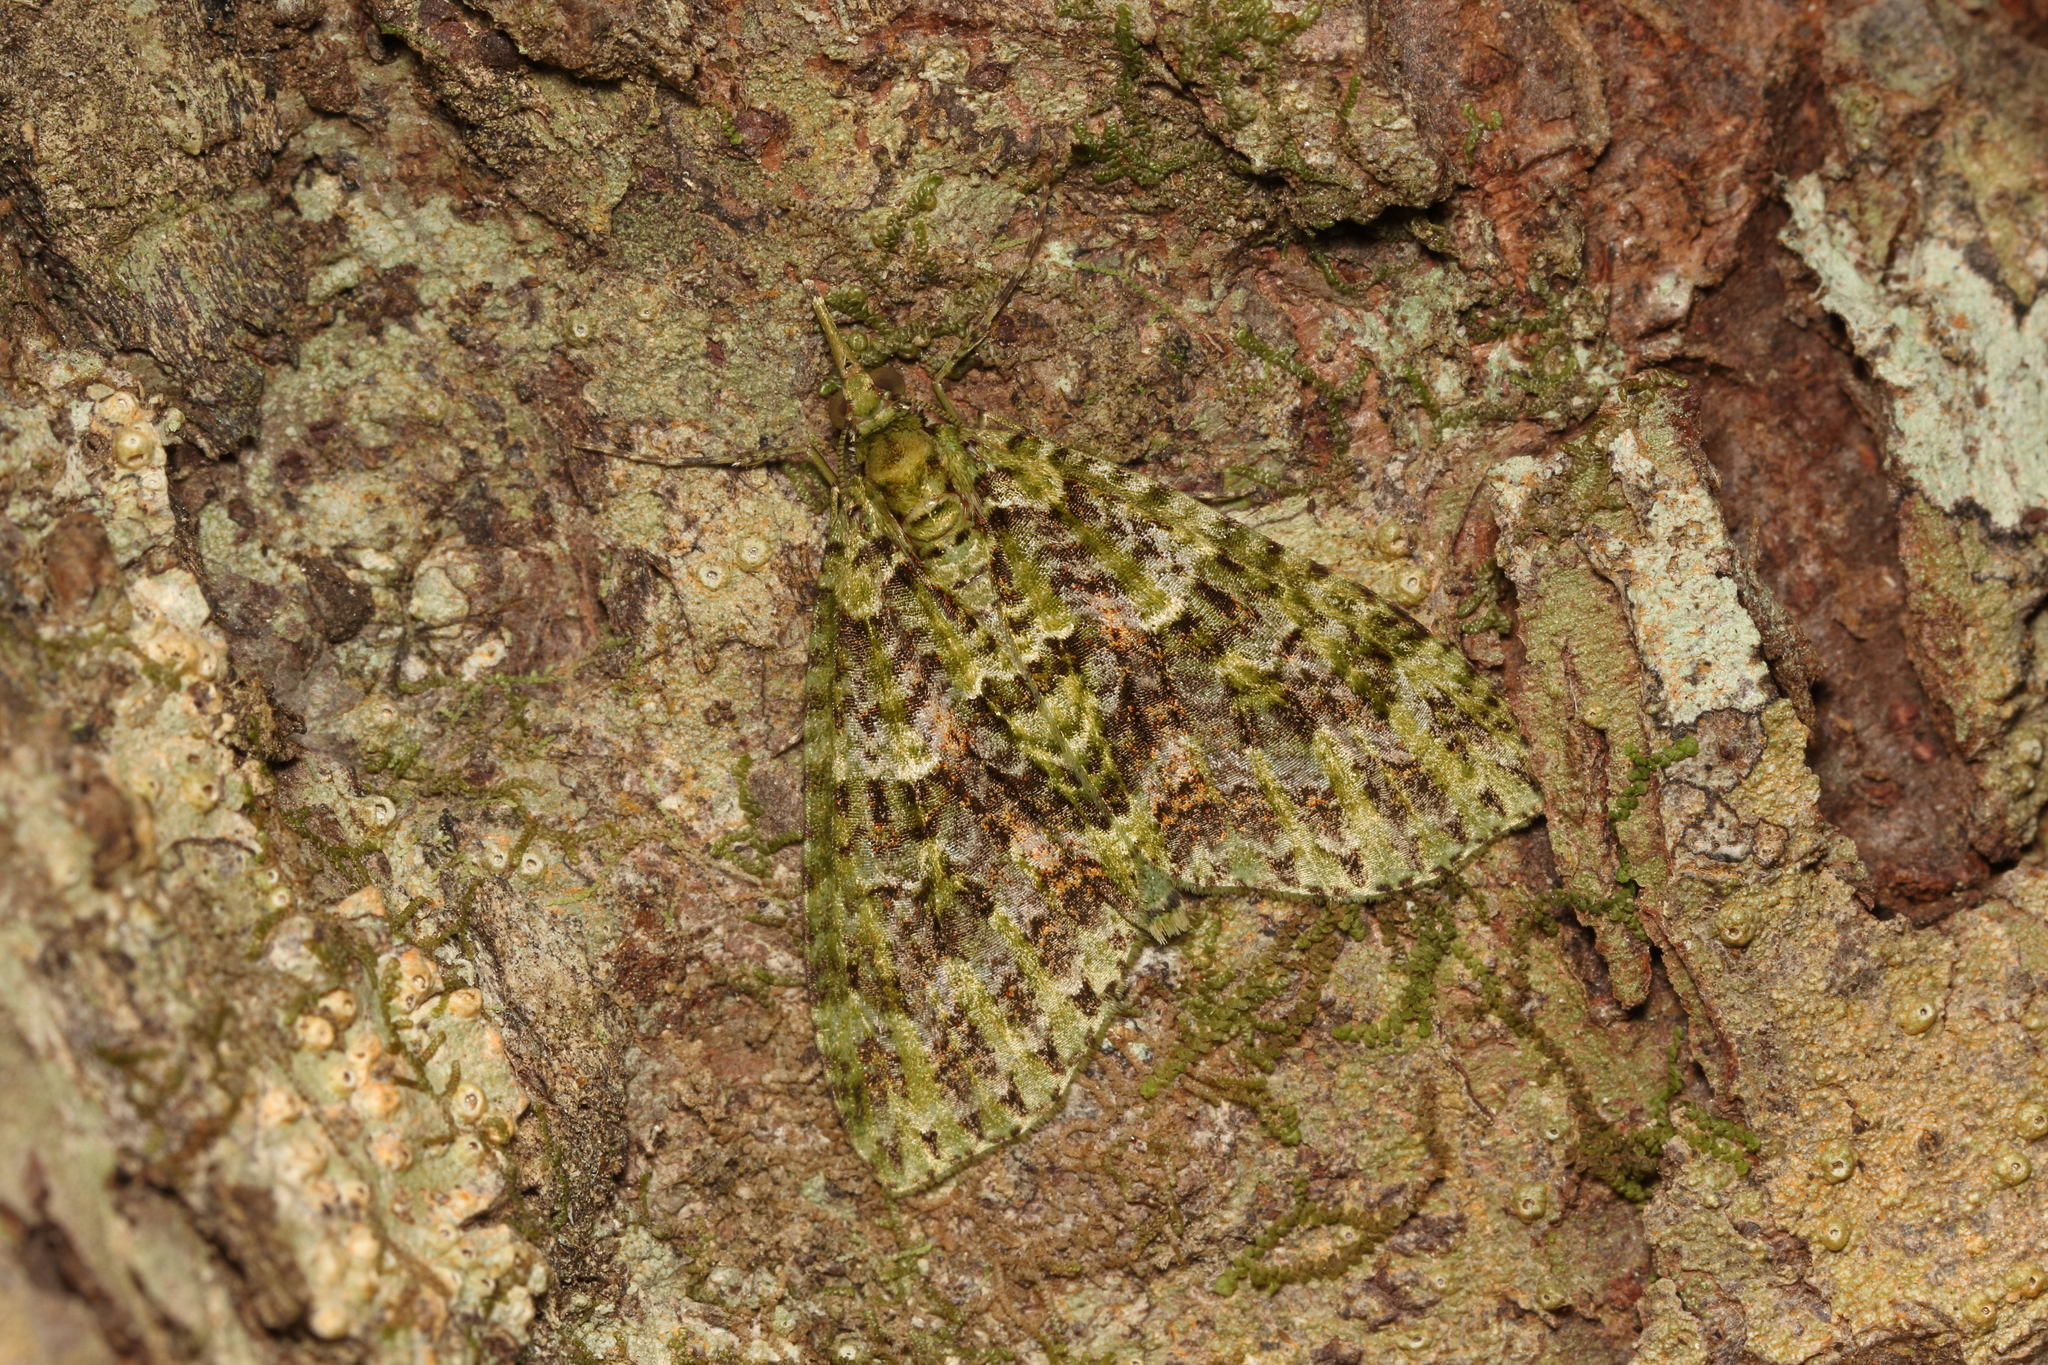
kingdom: Animalia
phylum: Arthropoda
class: Insecta
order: Lepidoptera
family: Geometridae
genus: Tatosoma
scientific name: Tatosoma tipulata
